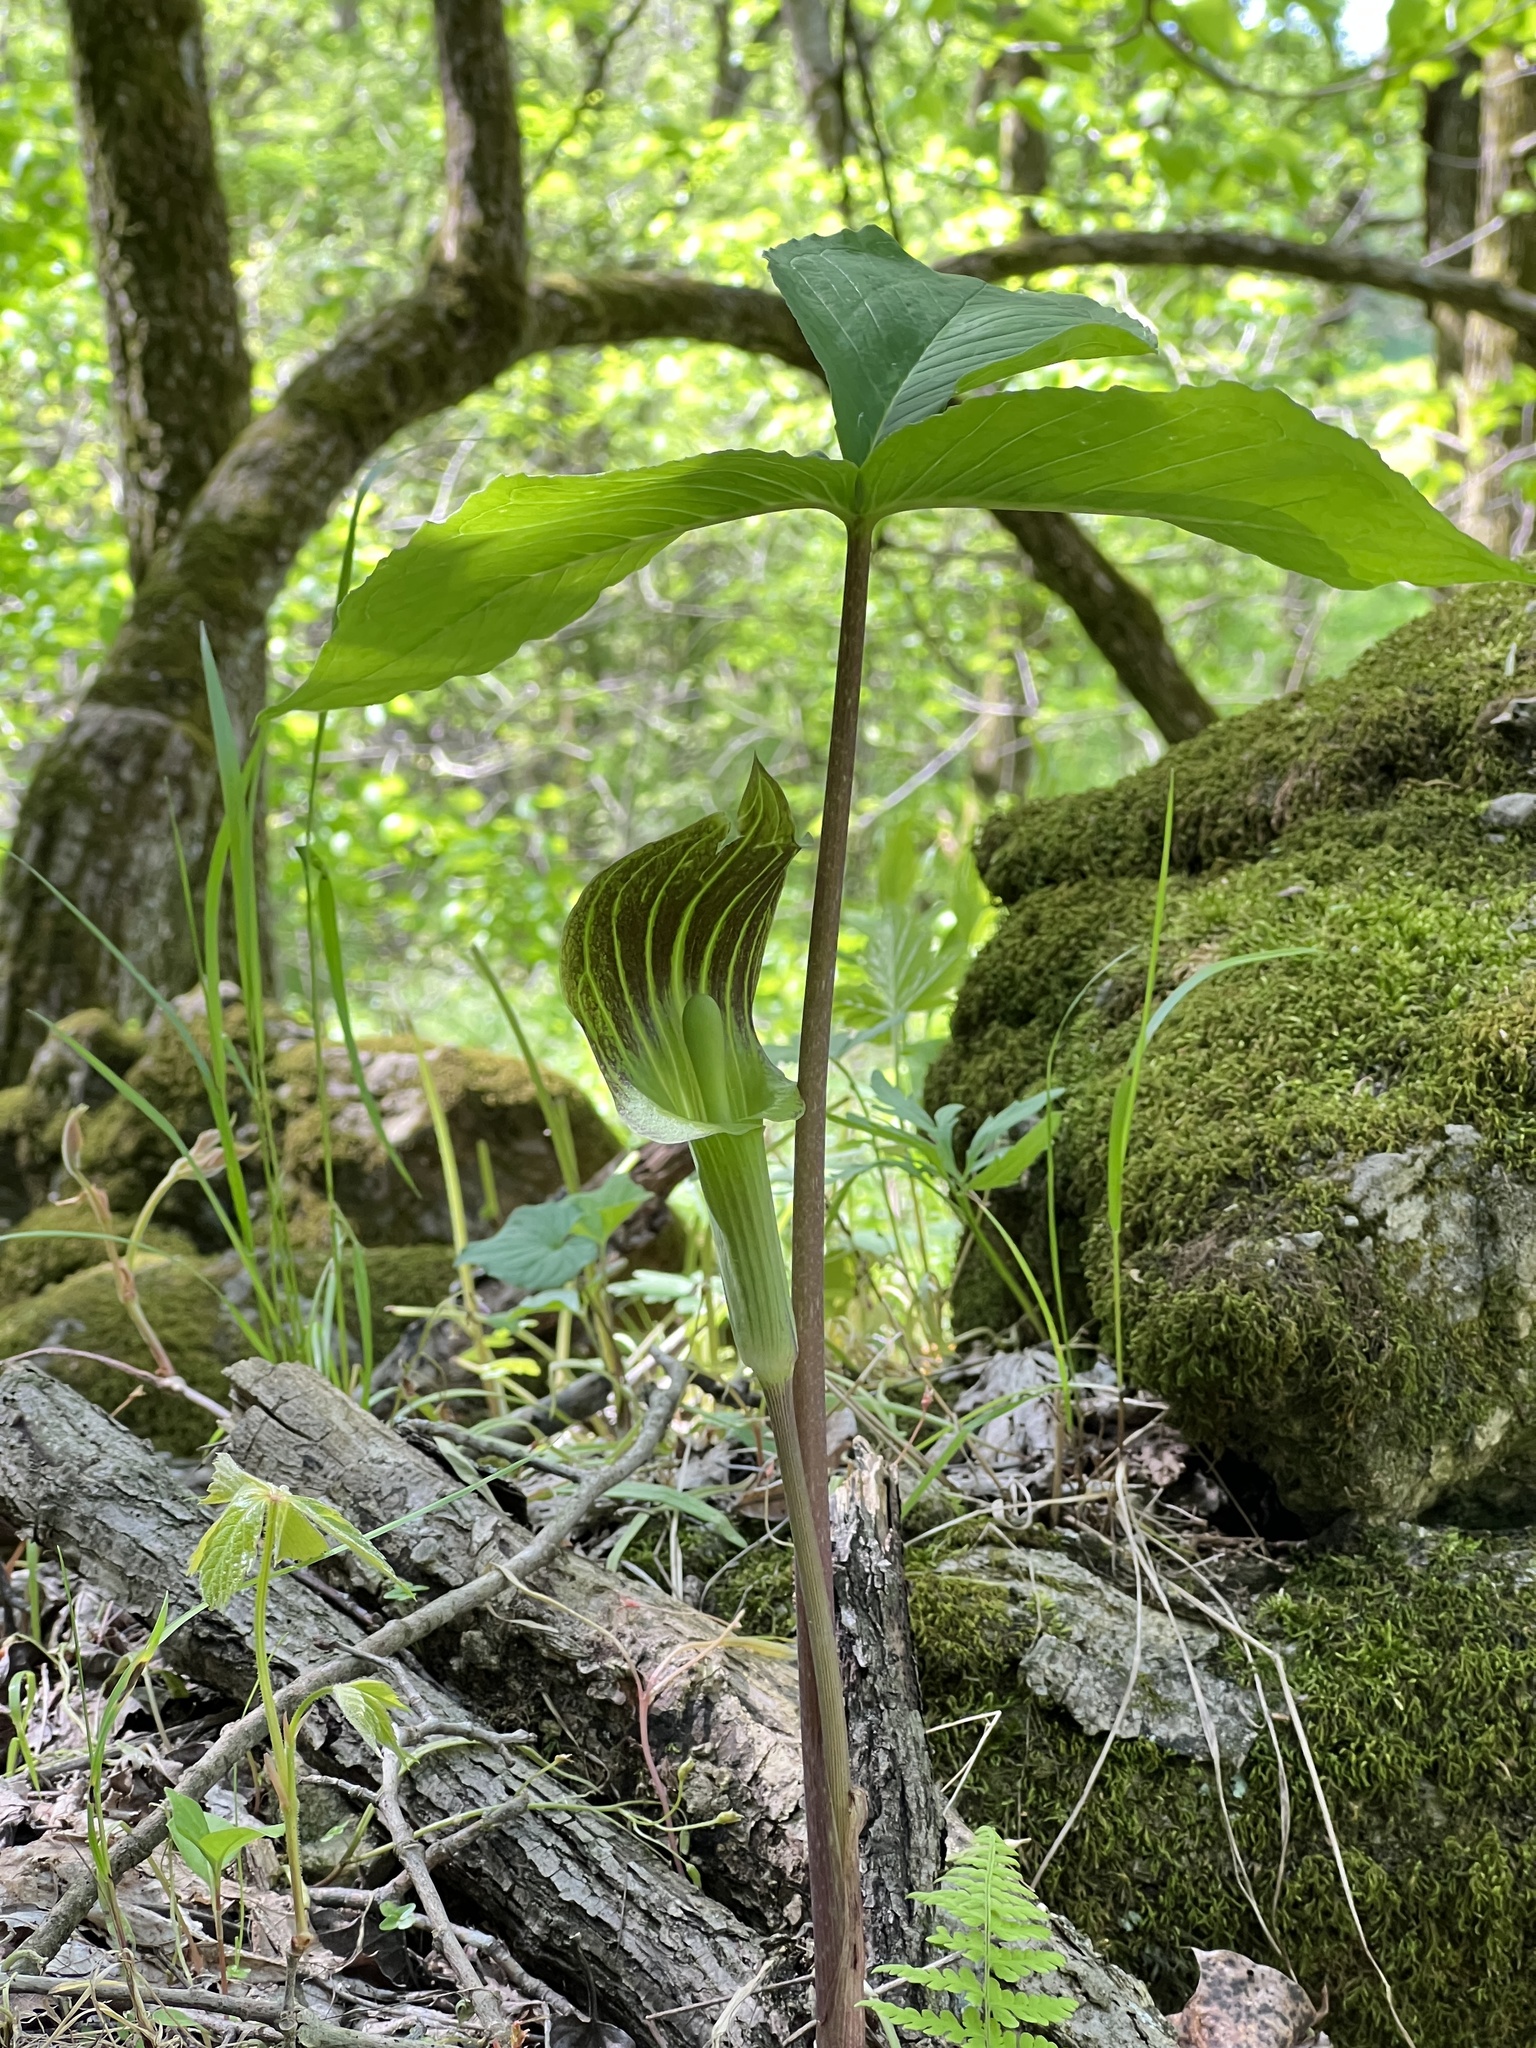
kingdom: Plantae
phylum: Tracheophyta
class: Liliopsida
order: Alismatales
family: Araceae
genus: Arisaema
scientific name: Arisaema triphyllum
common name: Jack-in-the-pulpit
